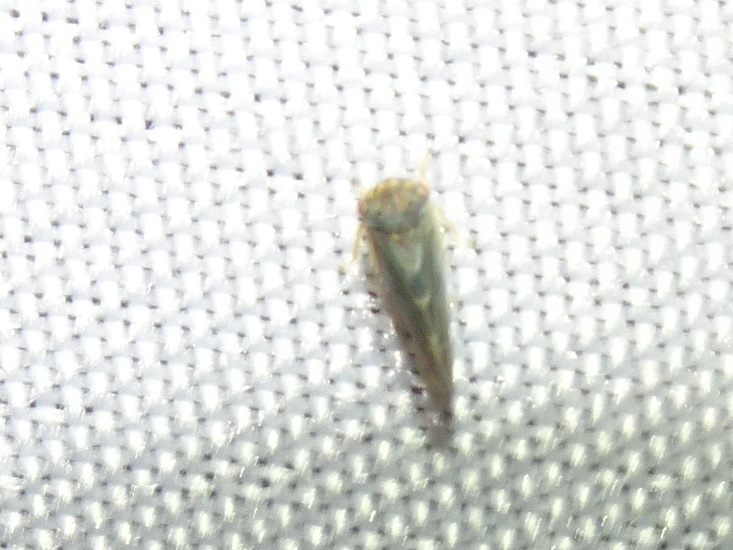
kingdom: Animalia
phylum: Arthropoda
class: Insecta
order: Hemiptera
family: Cicadellidae
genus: Agalliopsis
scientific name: Agalliopsis novella
